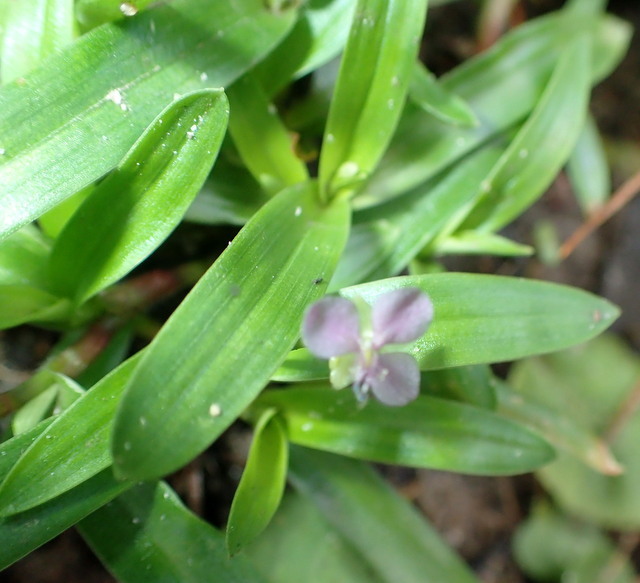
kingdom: Plantae
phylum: Tracheophyta
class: Liliopsida
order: Commelinales
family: Commelinaceae
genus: Murdannia
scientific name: Murdannia nudiflora
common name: Nakedstem dewflower
